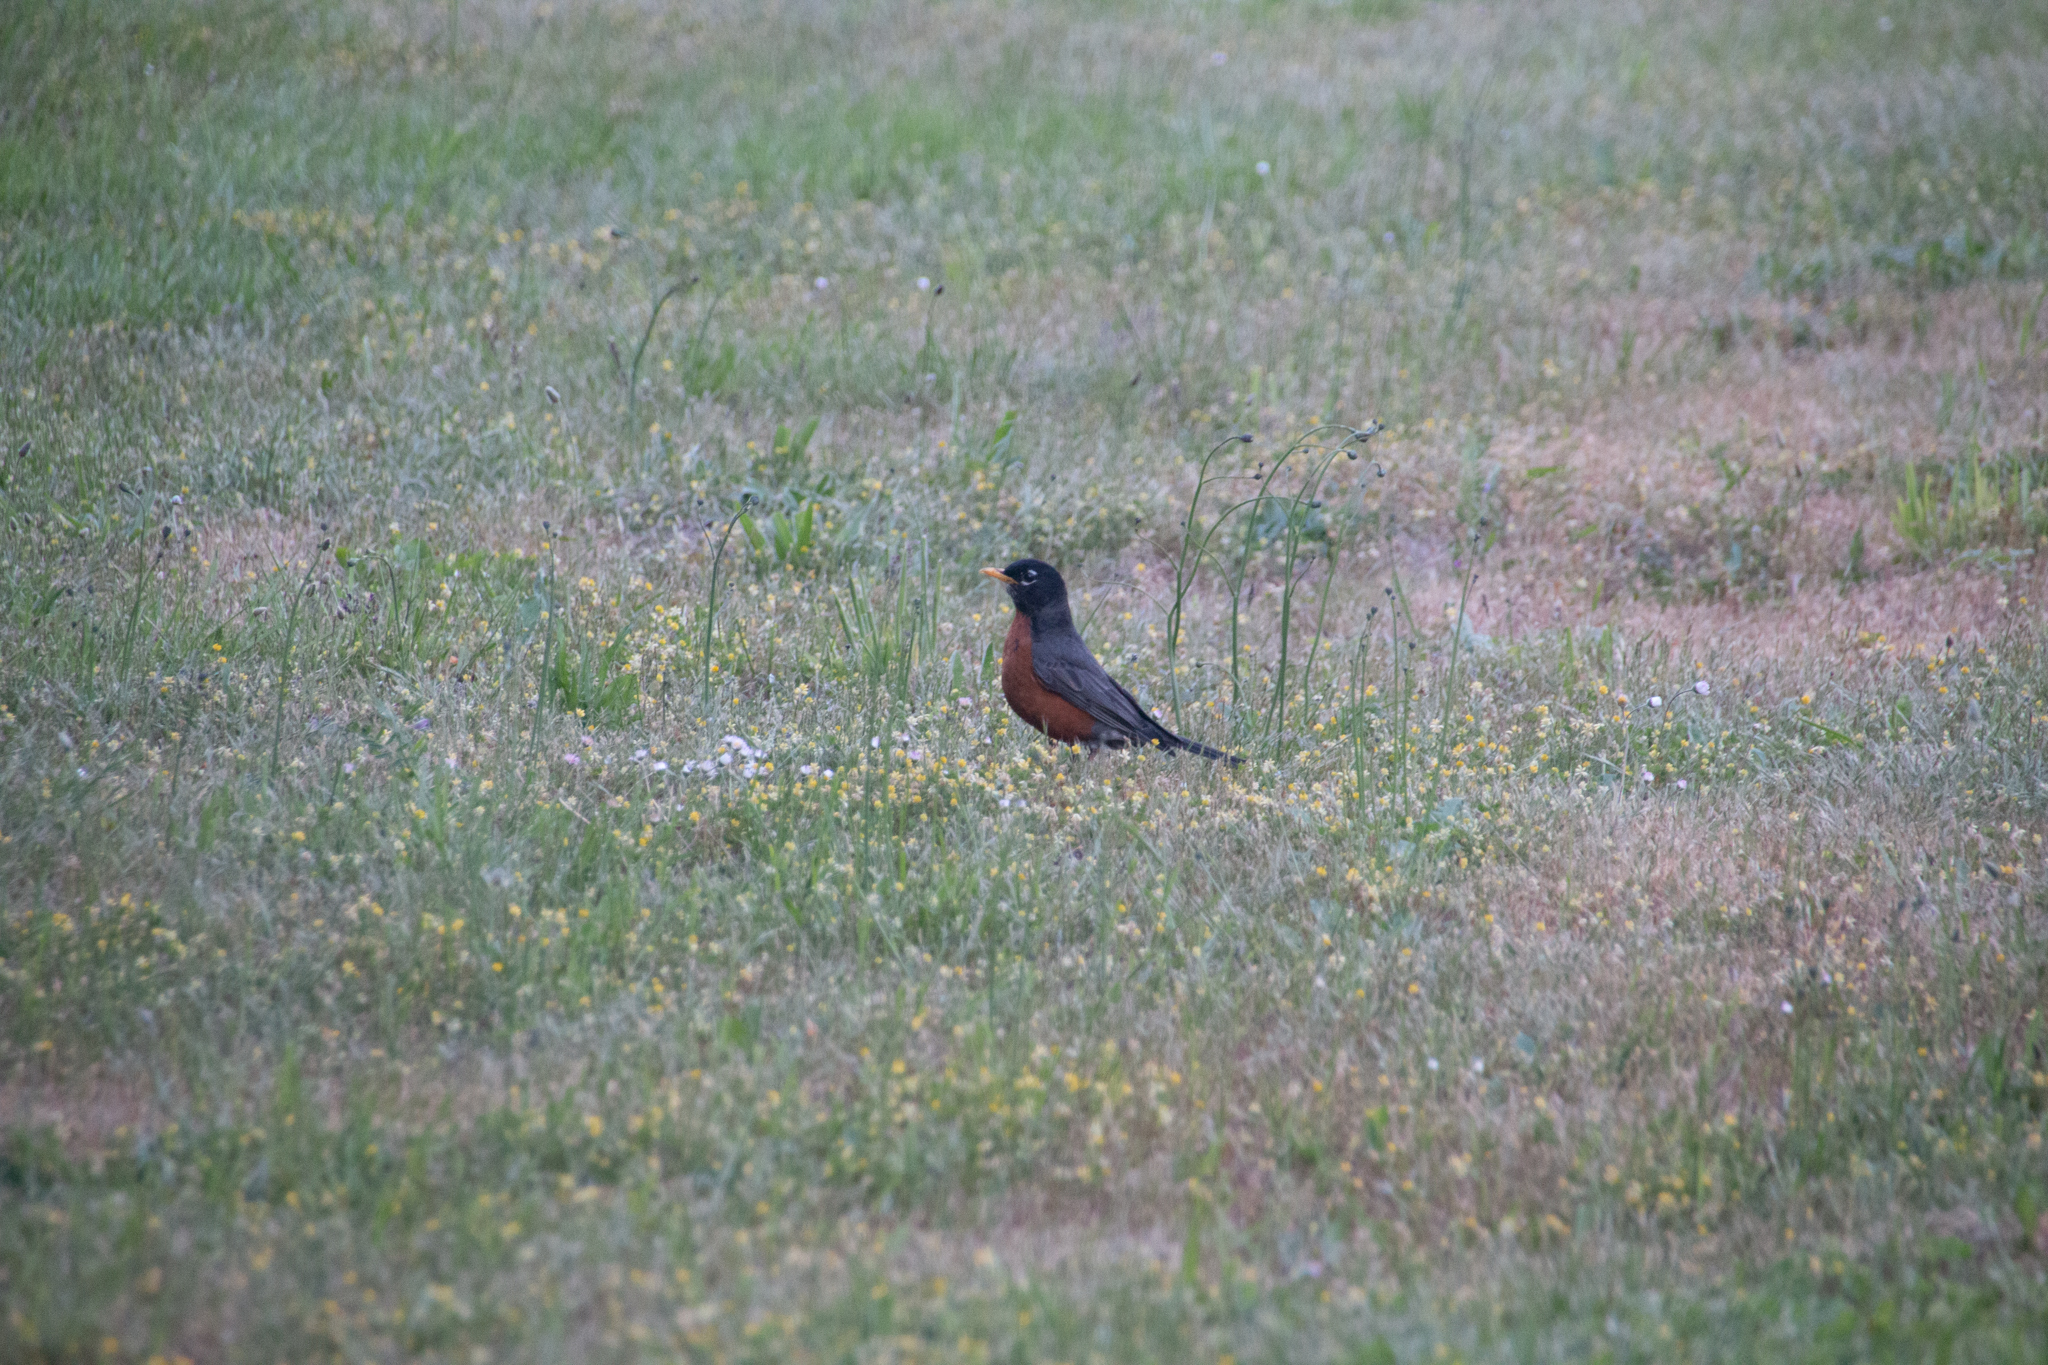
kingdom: Animalia
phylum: Chordata
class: Aves
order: Passeriformes
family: Turdidae
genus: Turdus
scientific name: Turdus migratorius
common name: American robin
